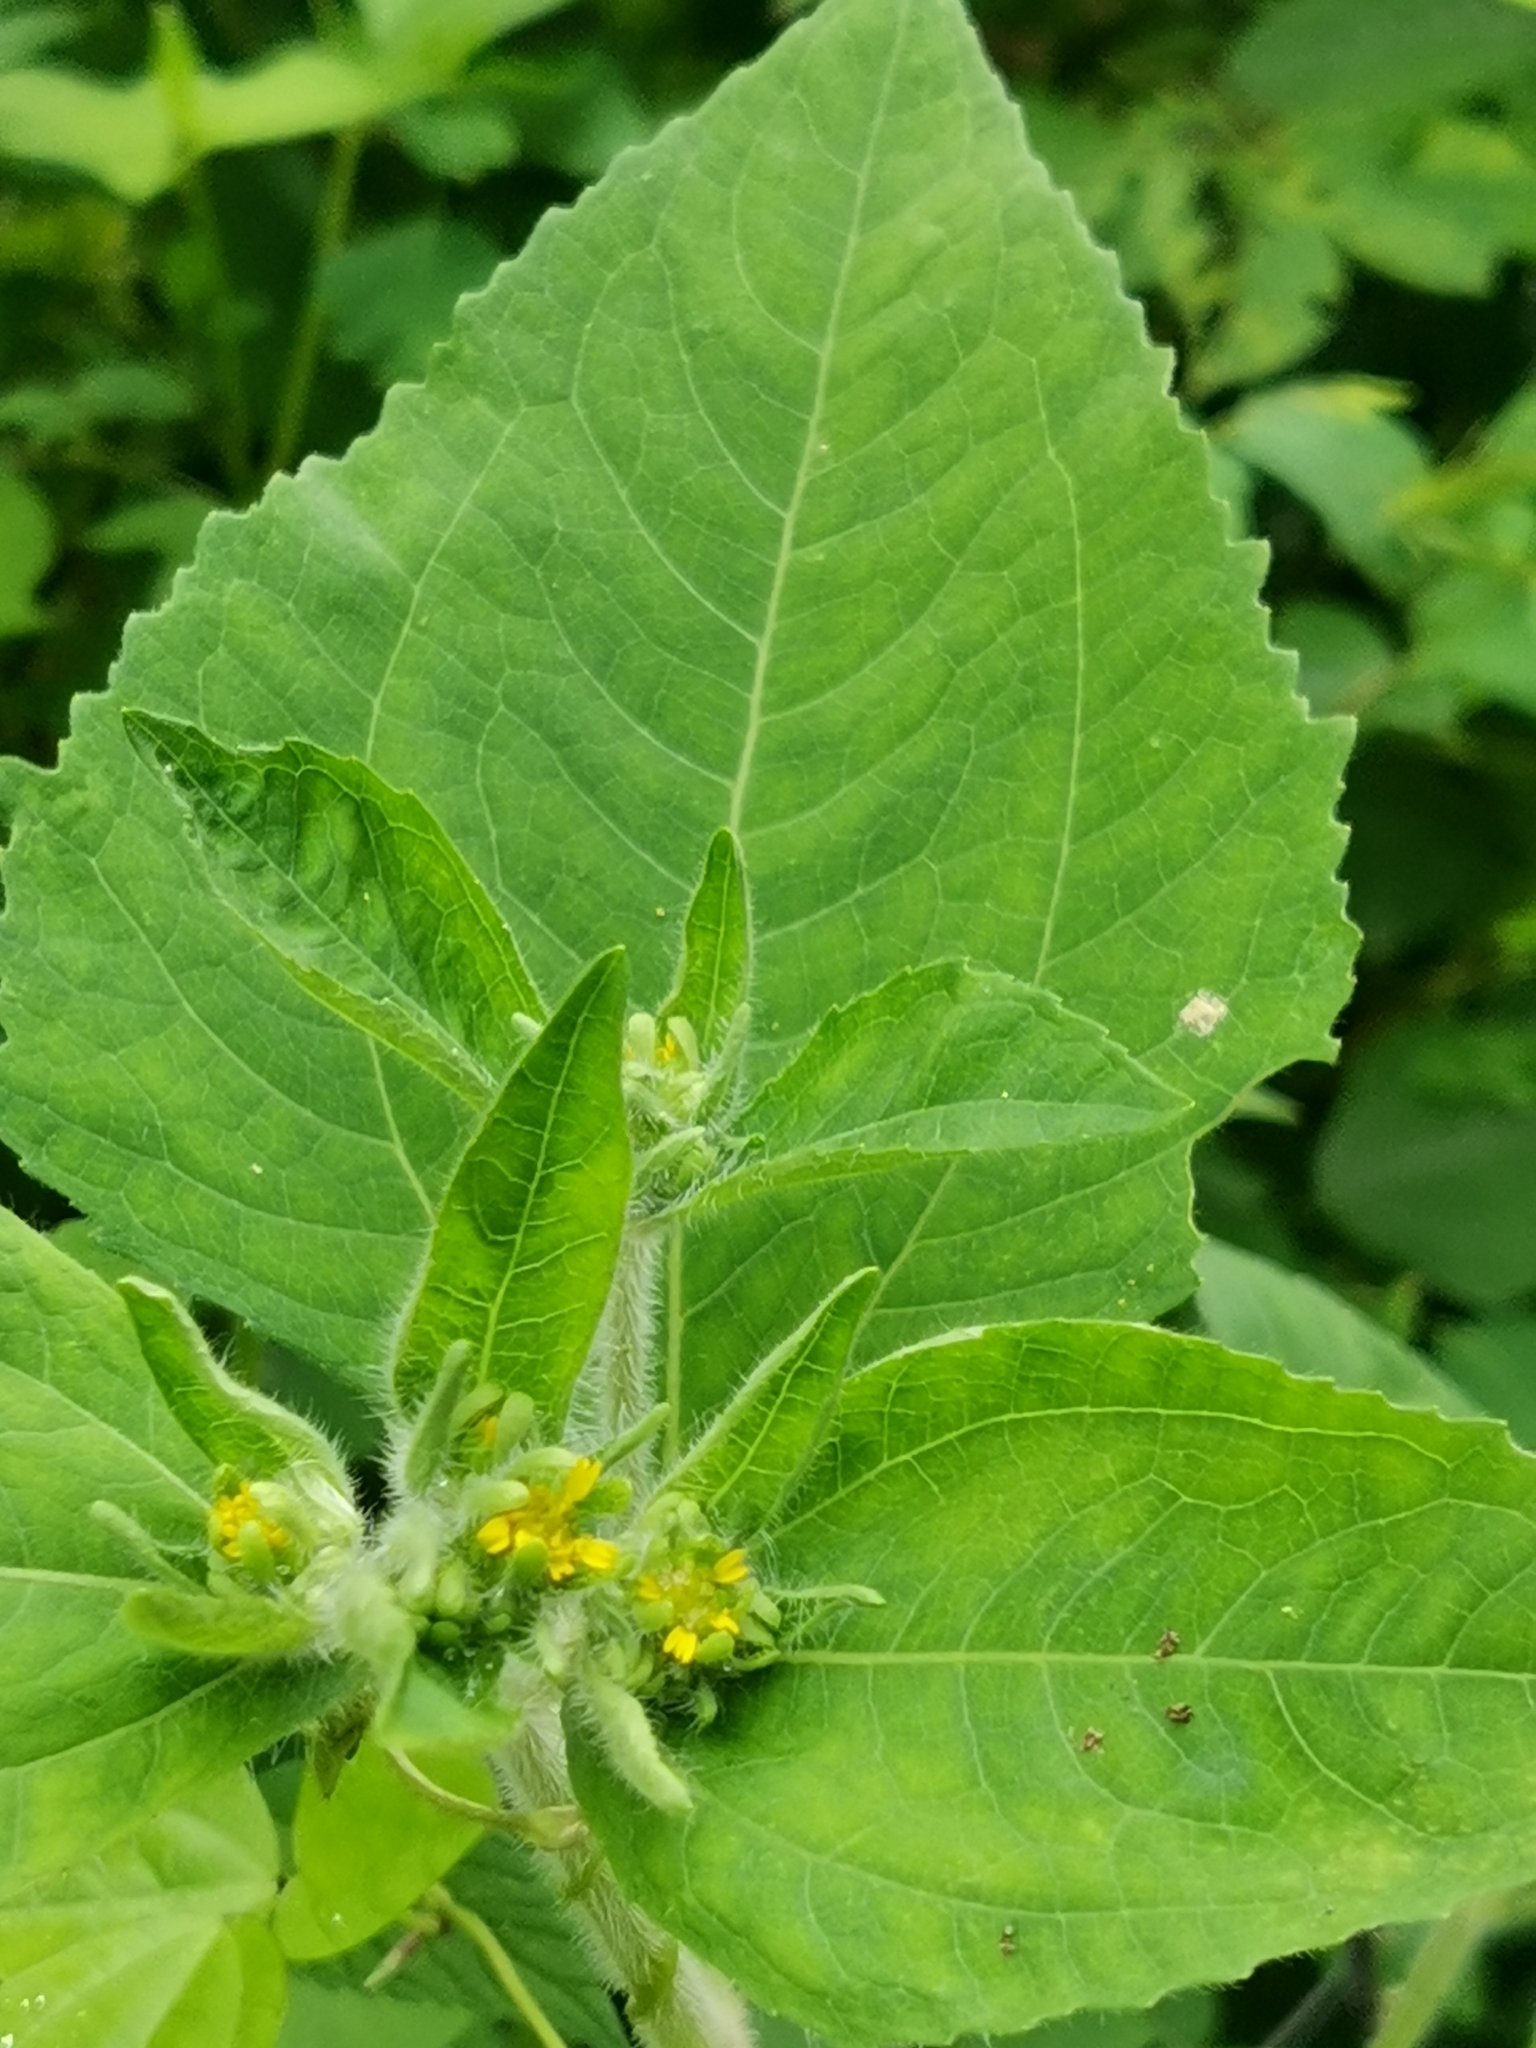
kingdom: Plantae
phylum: Tracheophyta
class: Magnoliopsida
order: Asterales
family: Asteraceae
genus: Sigesbeckia
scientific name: Sigesbeckia pubescens
